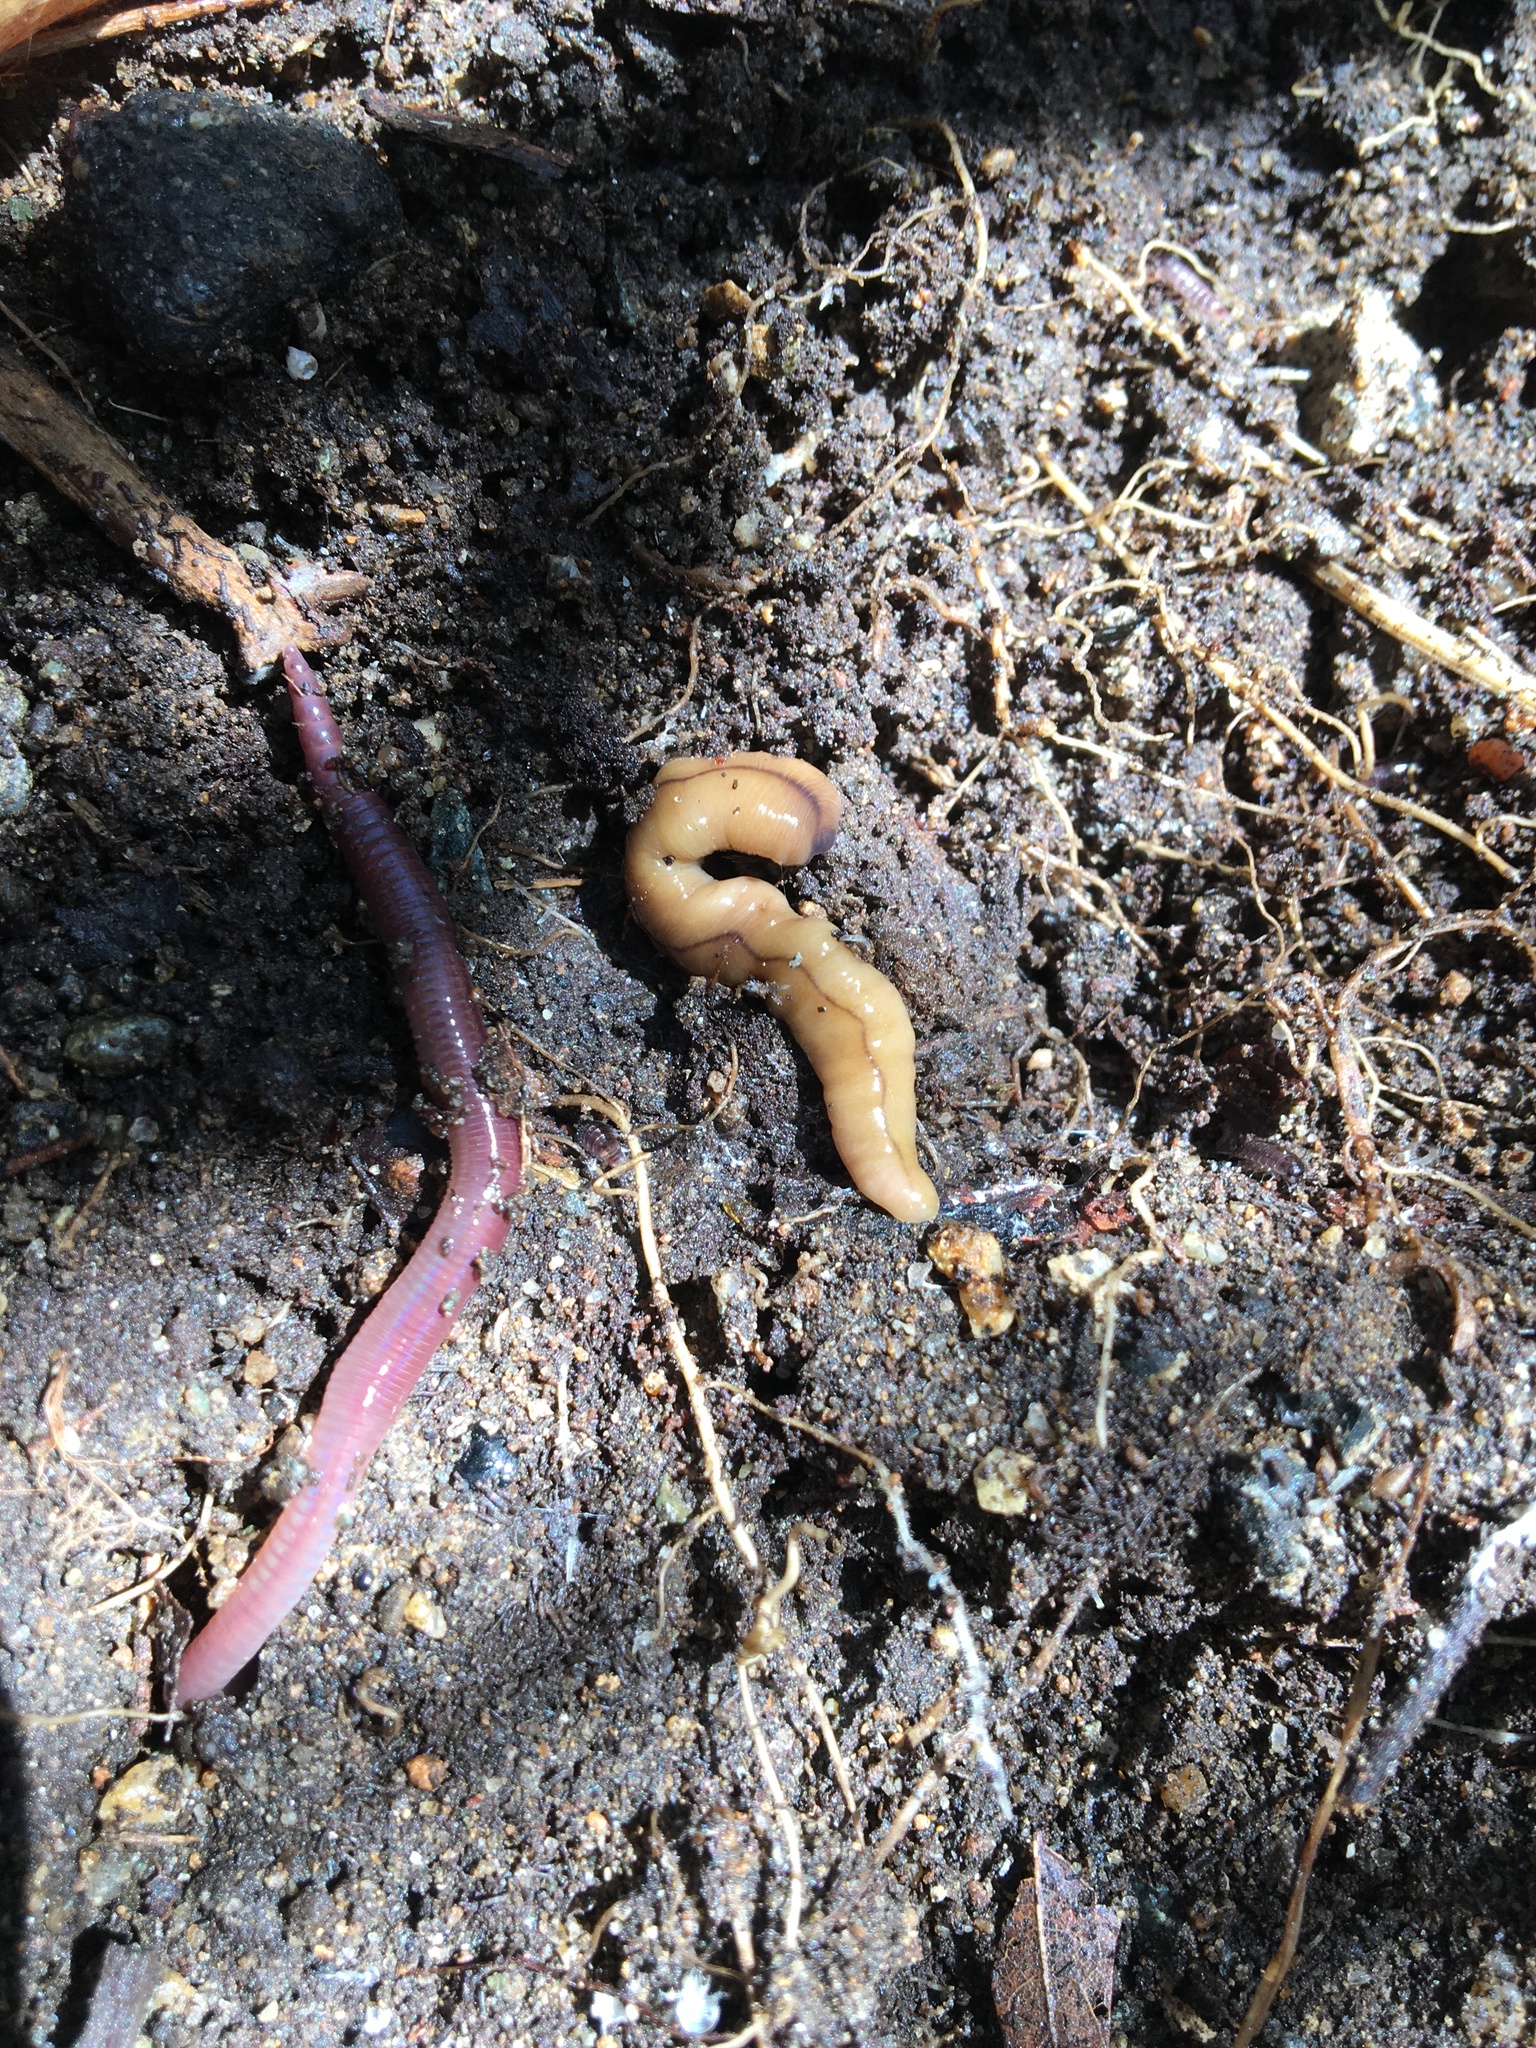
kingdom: Animalia
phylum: Platyhelminthes
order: Tricladida
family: Geoplanidae
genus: Bipalium
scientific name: Bipalium adventitium
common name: Land planarian
